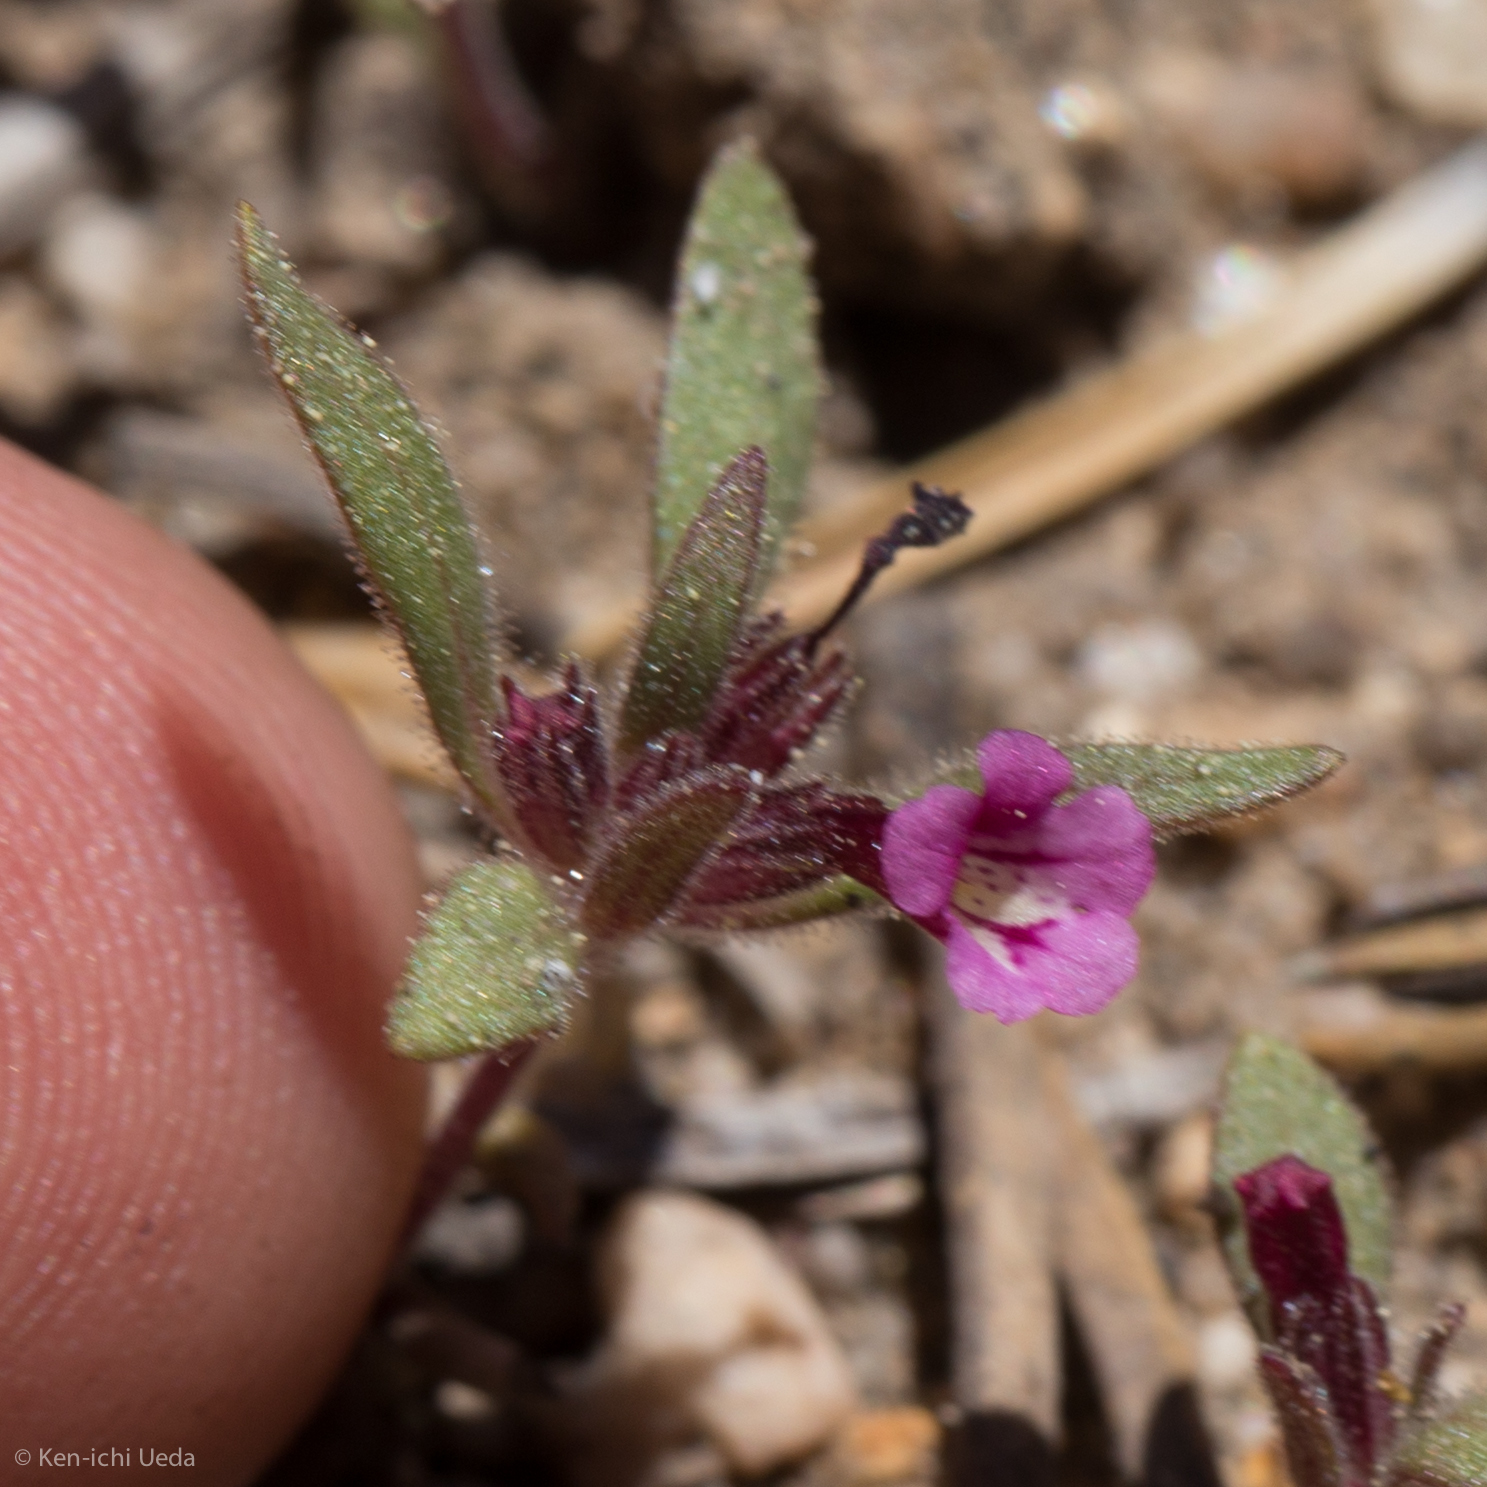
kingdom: Plantae
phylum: Tracheophyta
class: Magnoliopsida
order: Lamiales
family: Phrymaceae
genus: Diplacus
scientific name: Diplacus leptaleus
